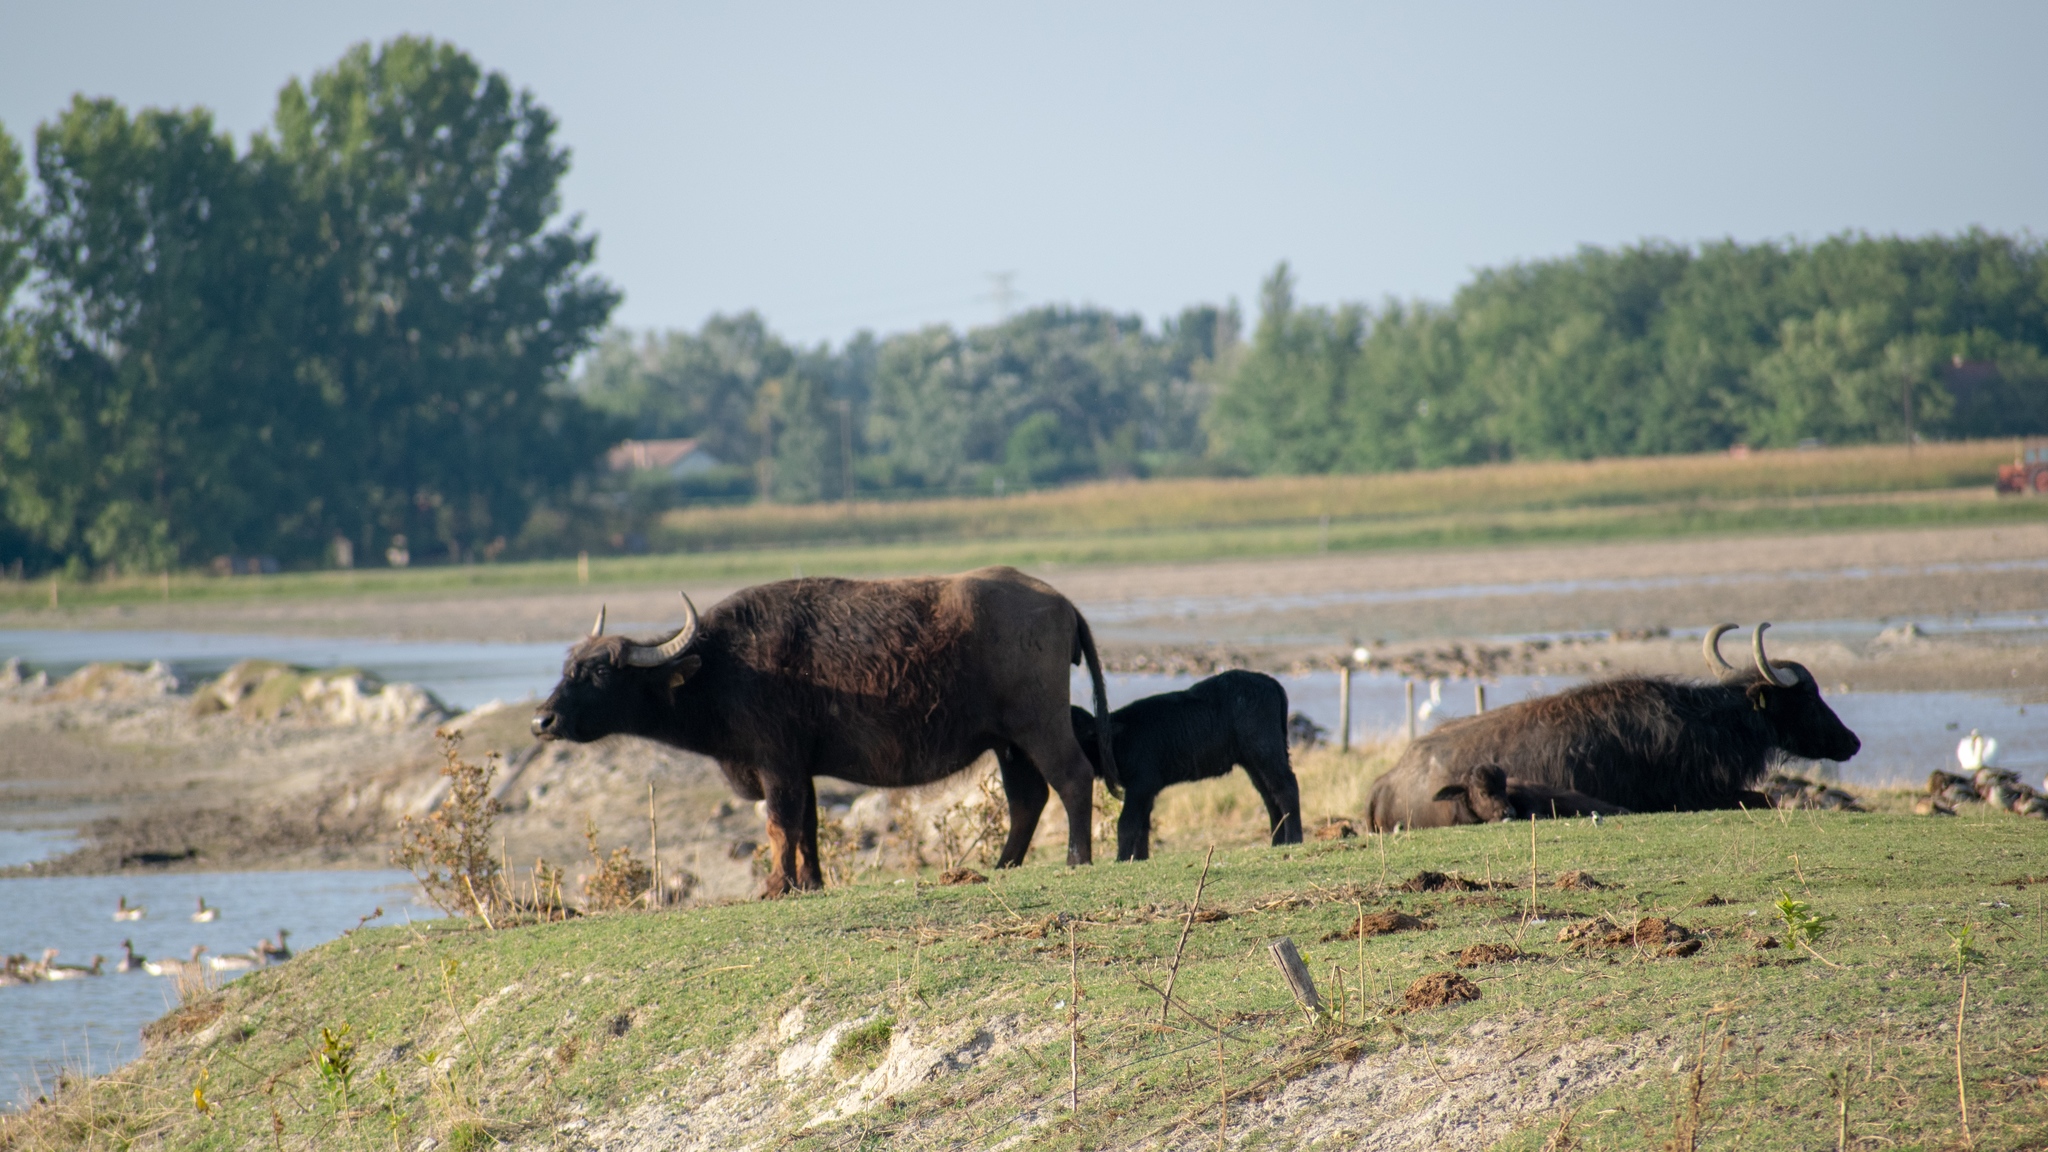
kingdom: Animalia
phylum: Chordata
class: Mammalia
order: Artiodactyla
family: Bovidae
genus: Bubalus
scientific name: Bubalus bubalis
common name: Water buffalo
